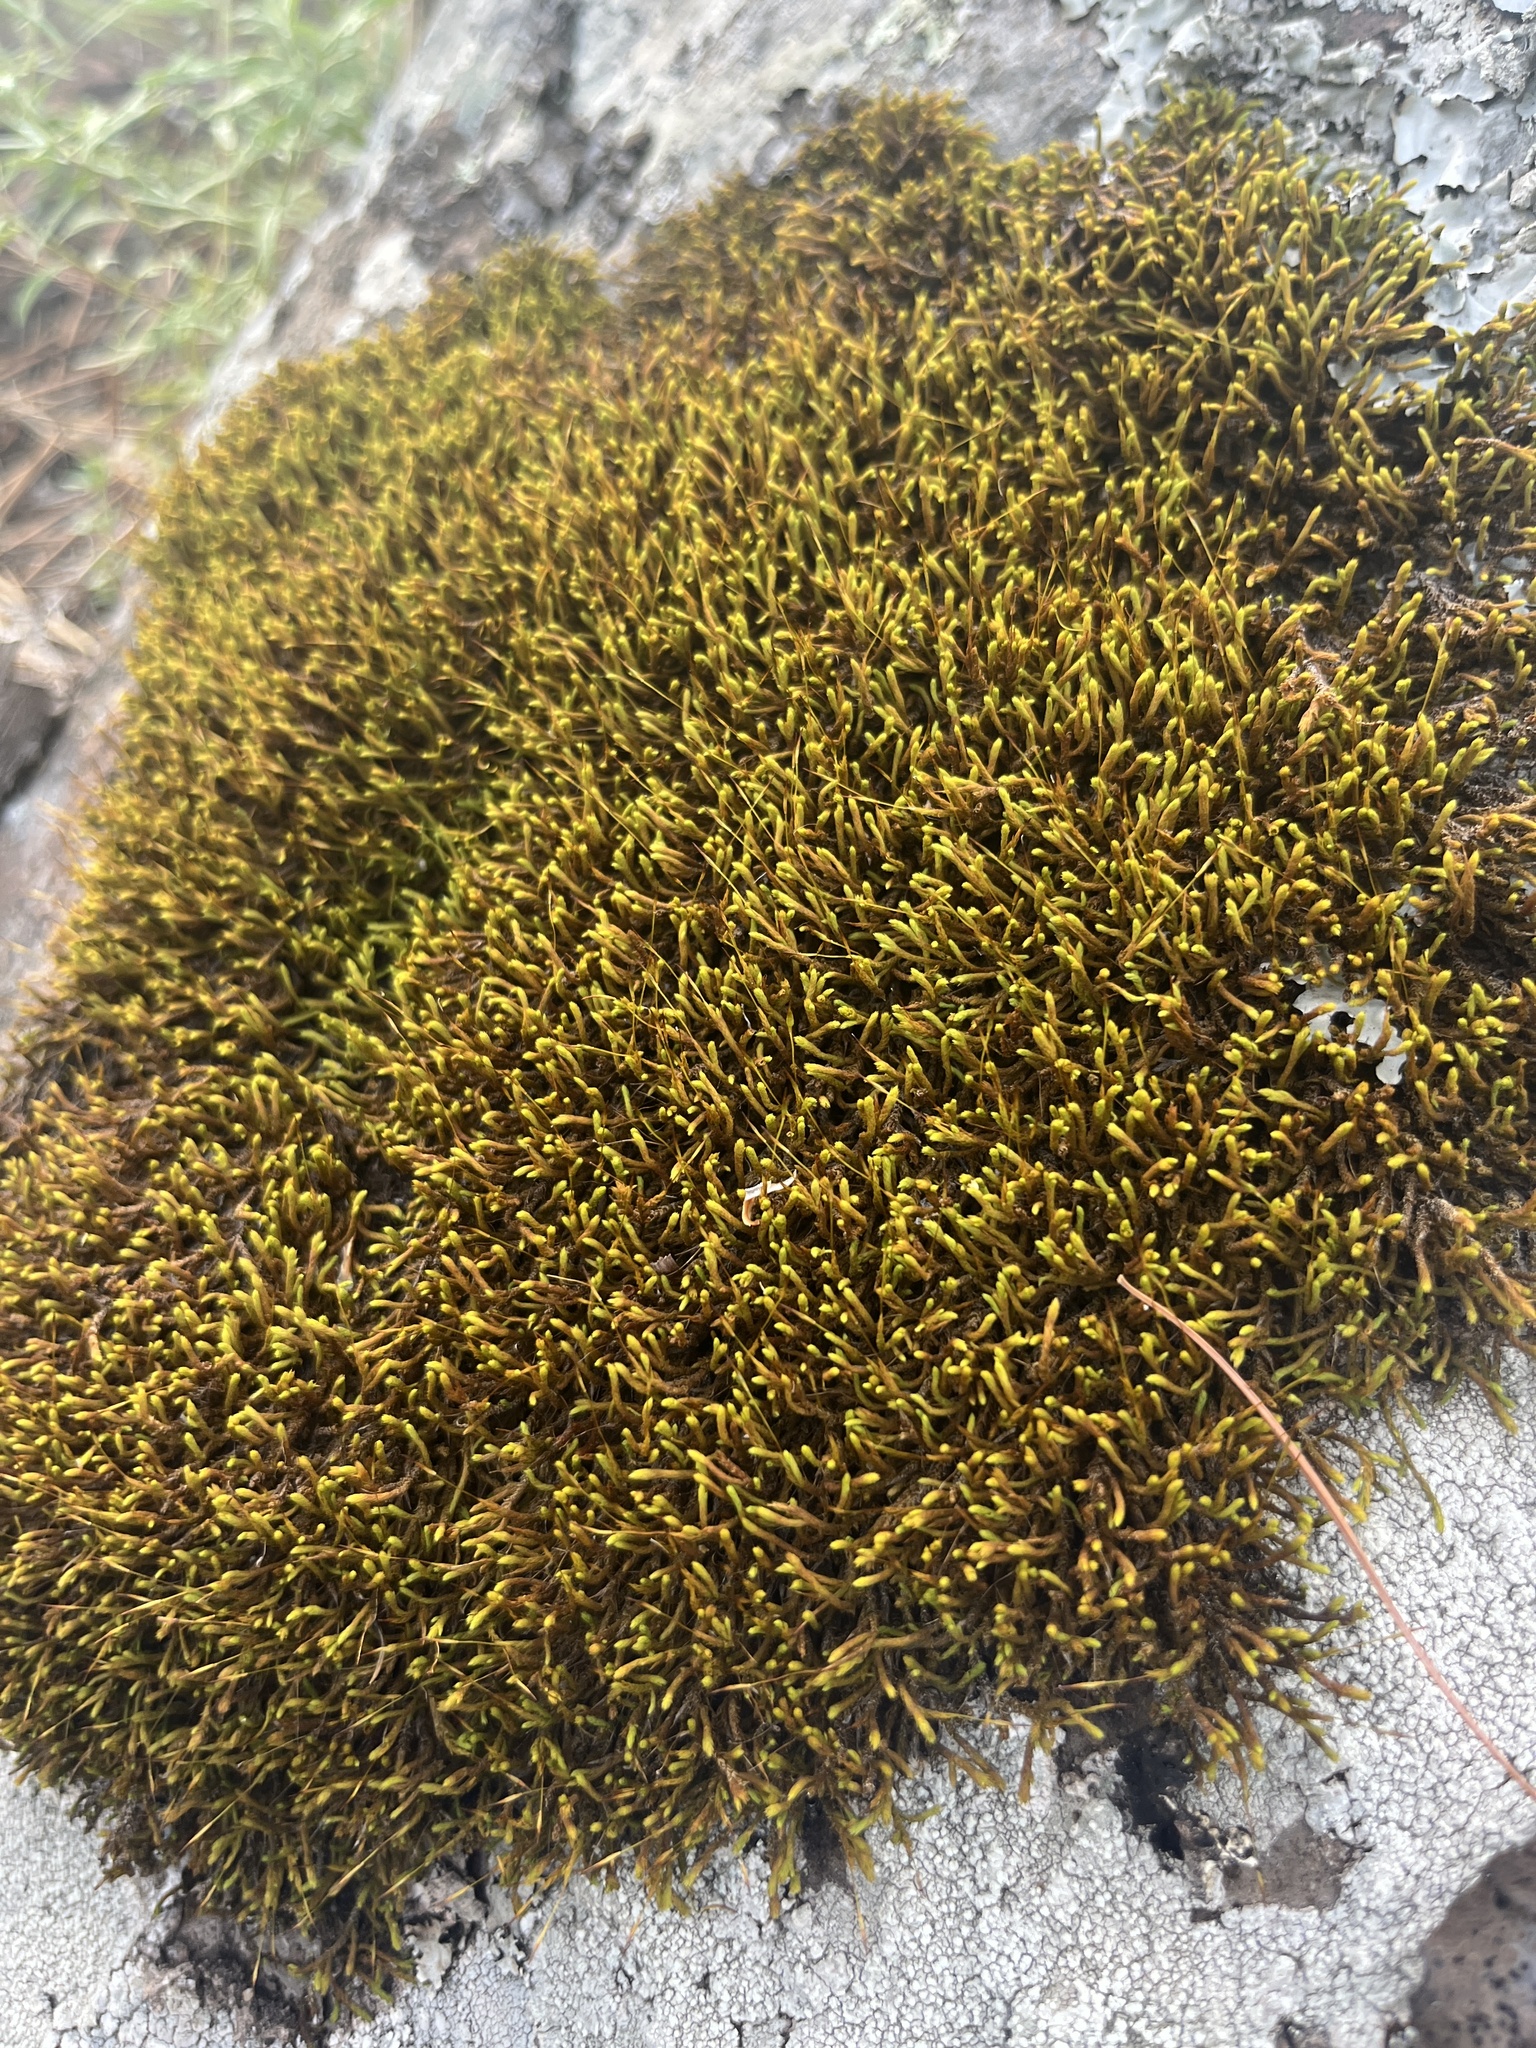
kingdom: Plantae
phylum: Bryophyta
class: Bryopsida
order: Hedwigiales
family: Hedwigiaceae
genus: Hedwigia
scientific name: Hedwigia ciliata
